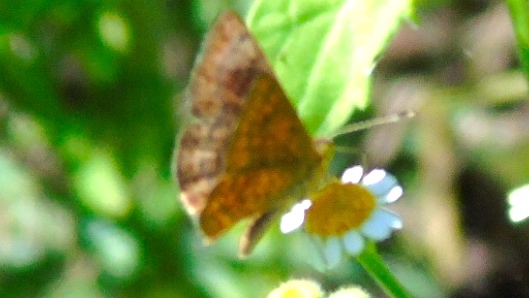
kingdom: Animalia
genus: Calephelis
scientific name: Calephelis
